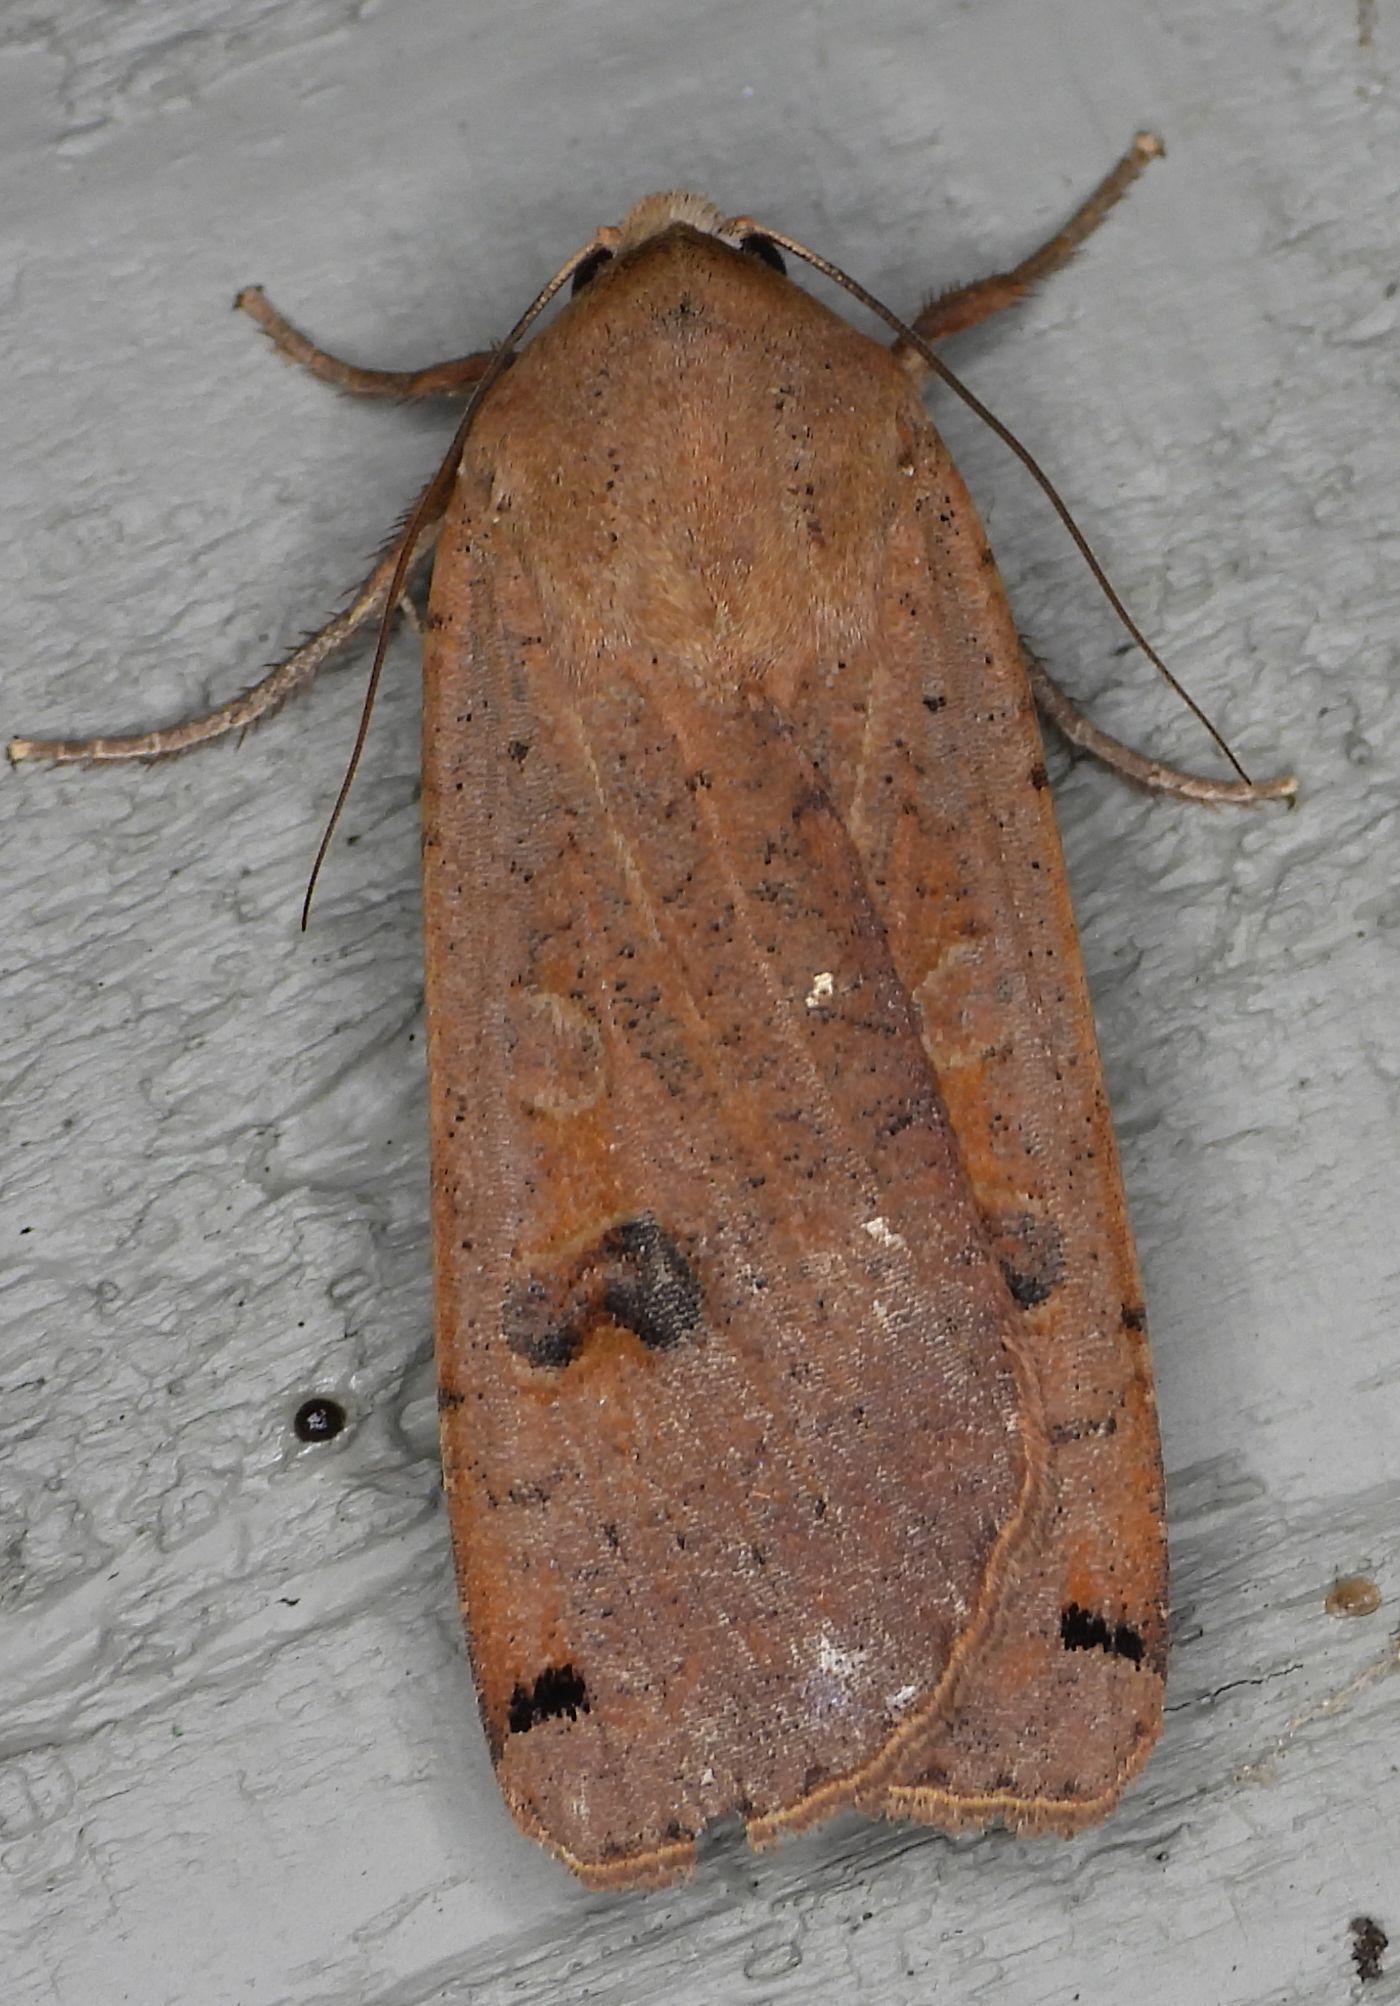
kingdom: Animalia
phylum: Arthropoda
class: Insecta
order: Lepidoptera
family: Noctuidae
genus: Noctua
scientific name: Noctua pronuba
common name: Large yellow underwing
